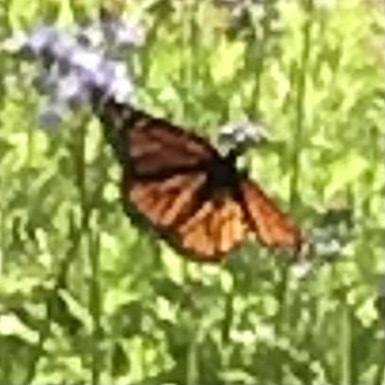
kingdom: Animalia
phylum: Arthropoda
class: Insecta
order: Lepidoptera
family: Nymphalidae
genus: Danaus
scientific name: Danaus plexippus
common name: Monarch
